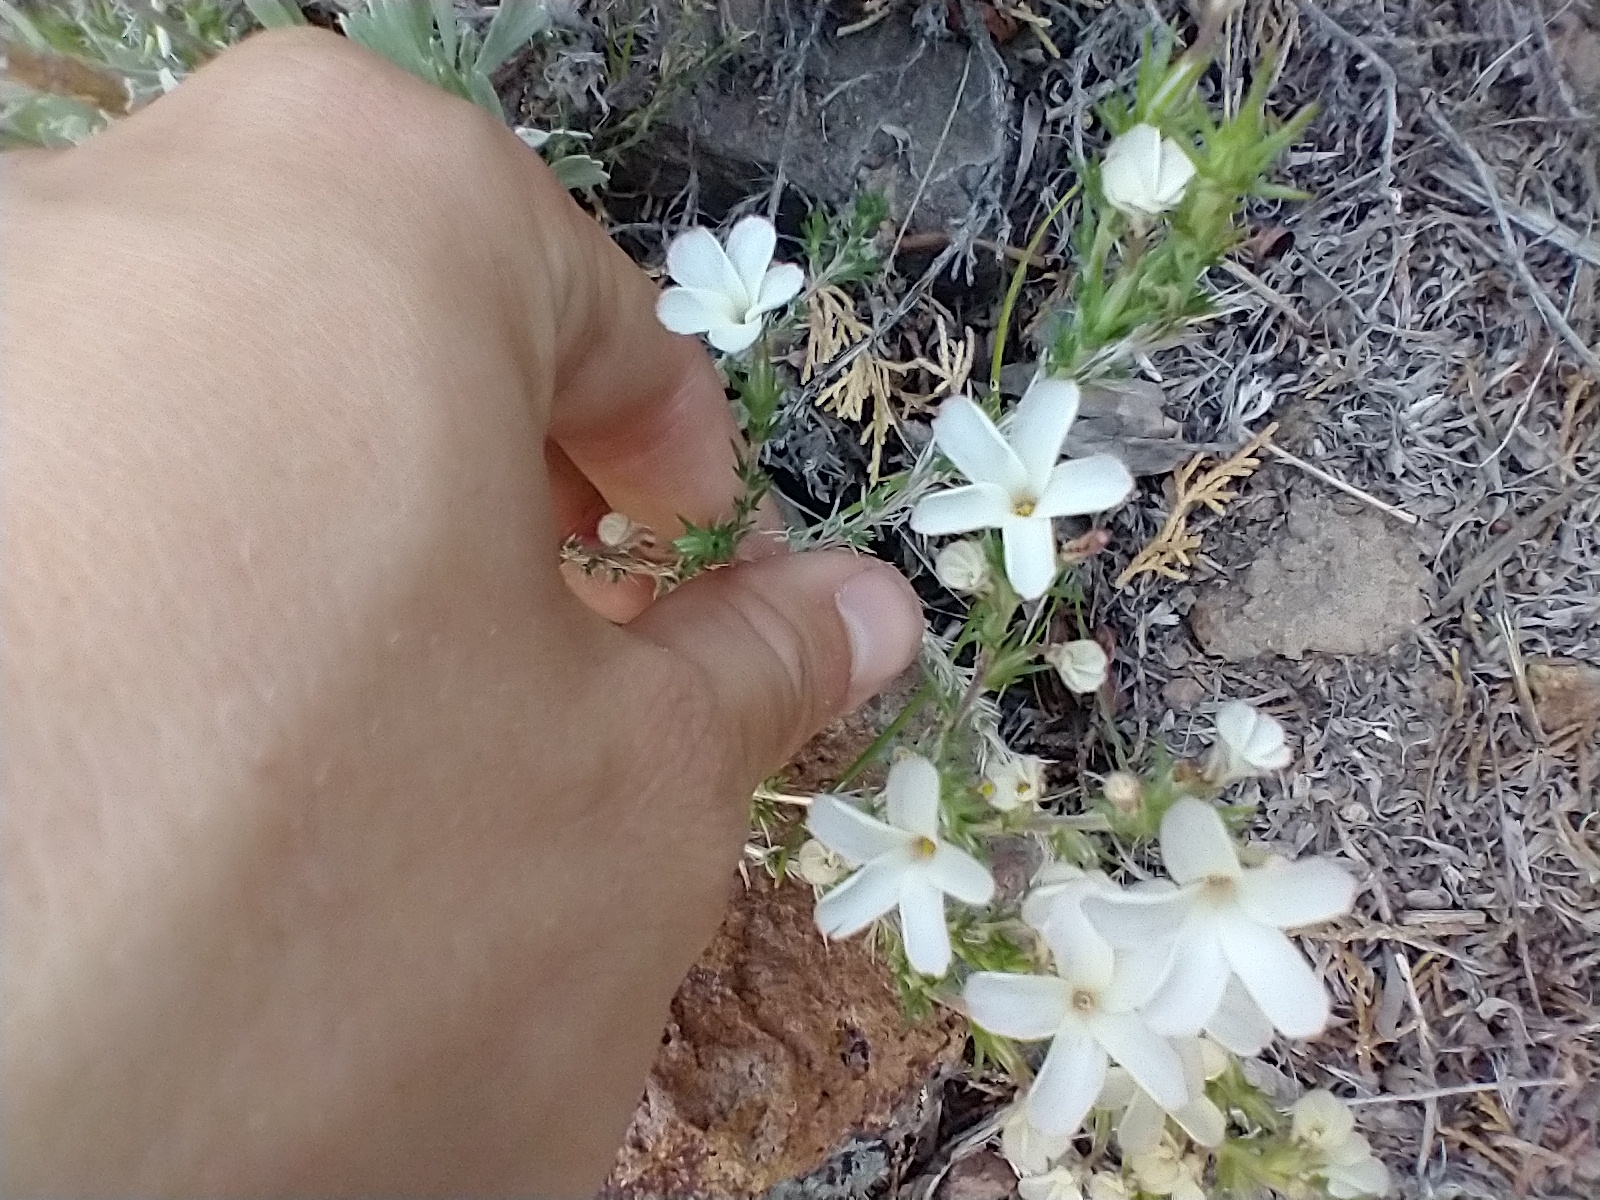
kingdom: Plantae
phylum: Tracheophyta
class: Magnoliopsida
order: Ericales
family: Polemoniaceae
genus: Linanthus
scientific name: Linanthus pungens
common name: Granite prickly phlox
